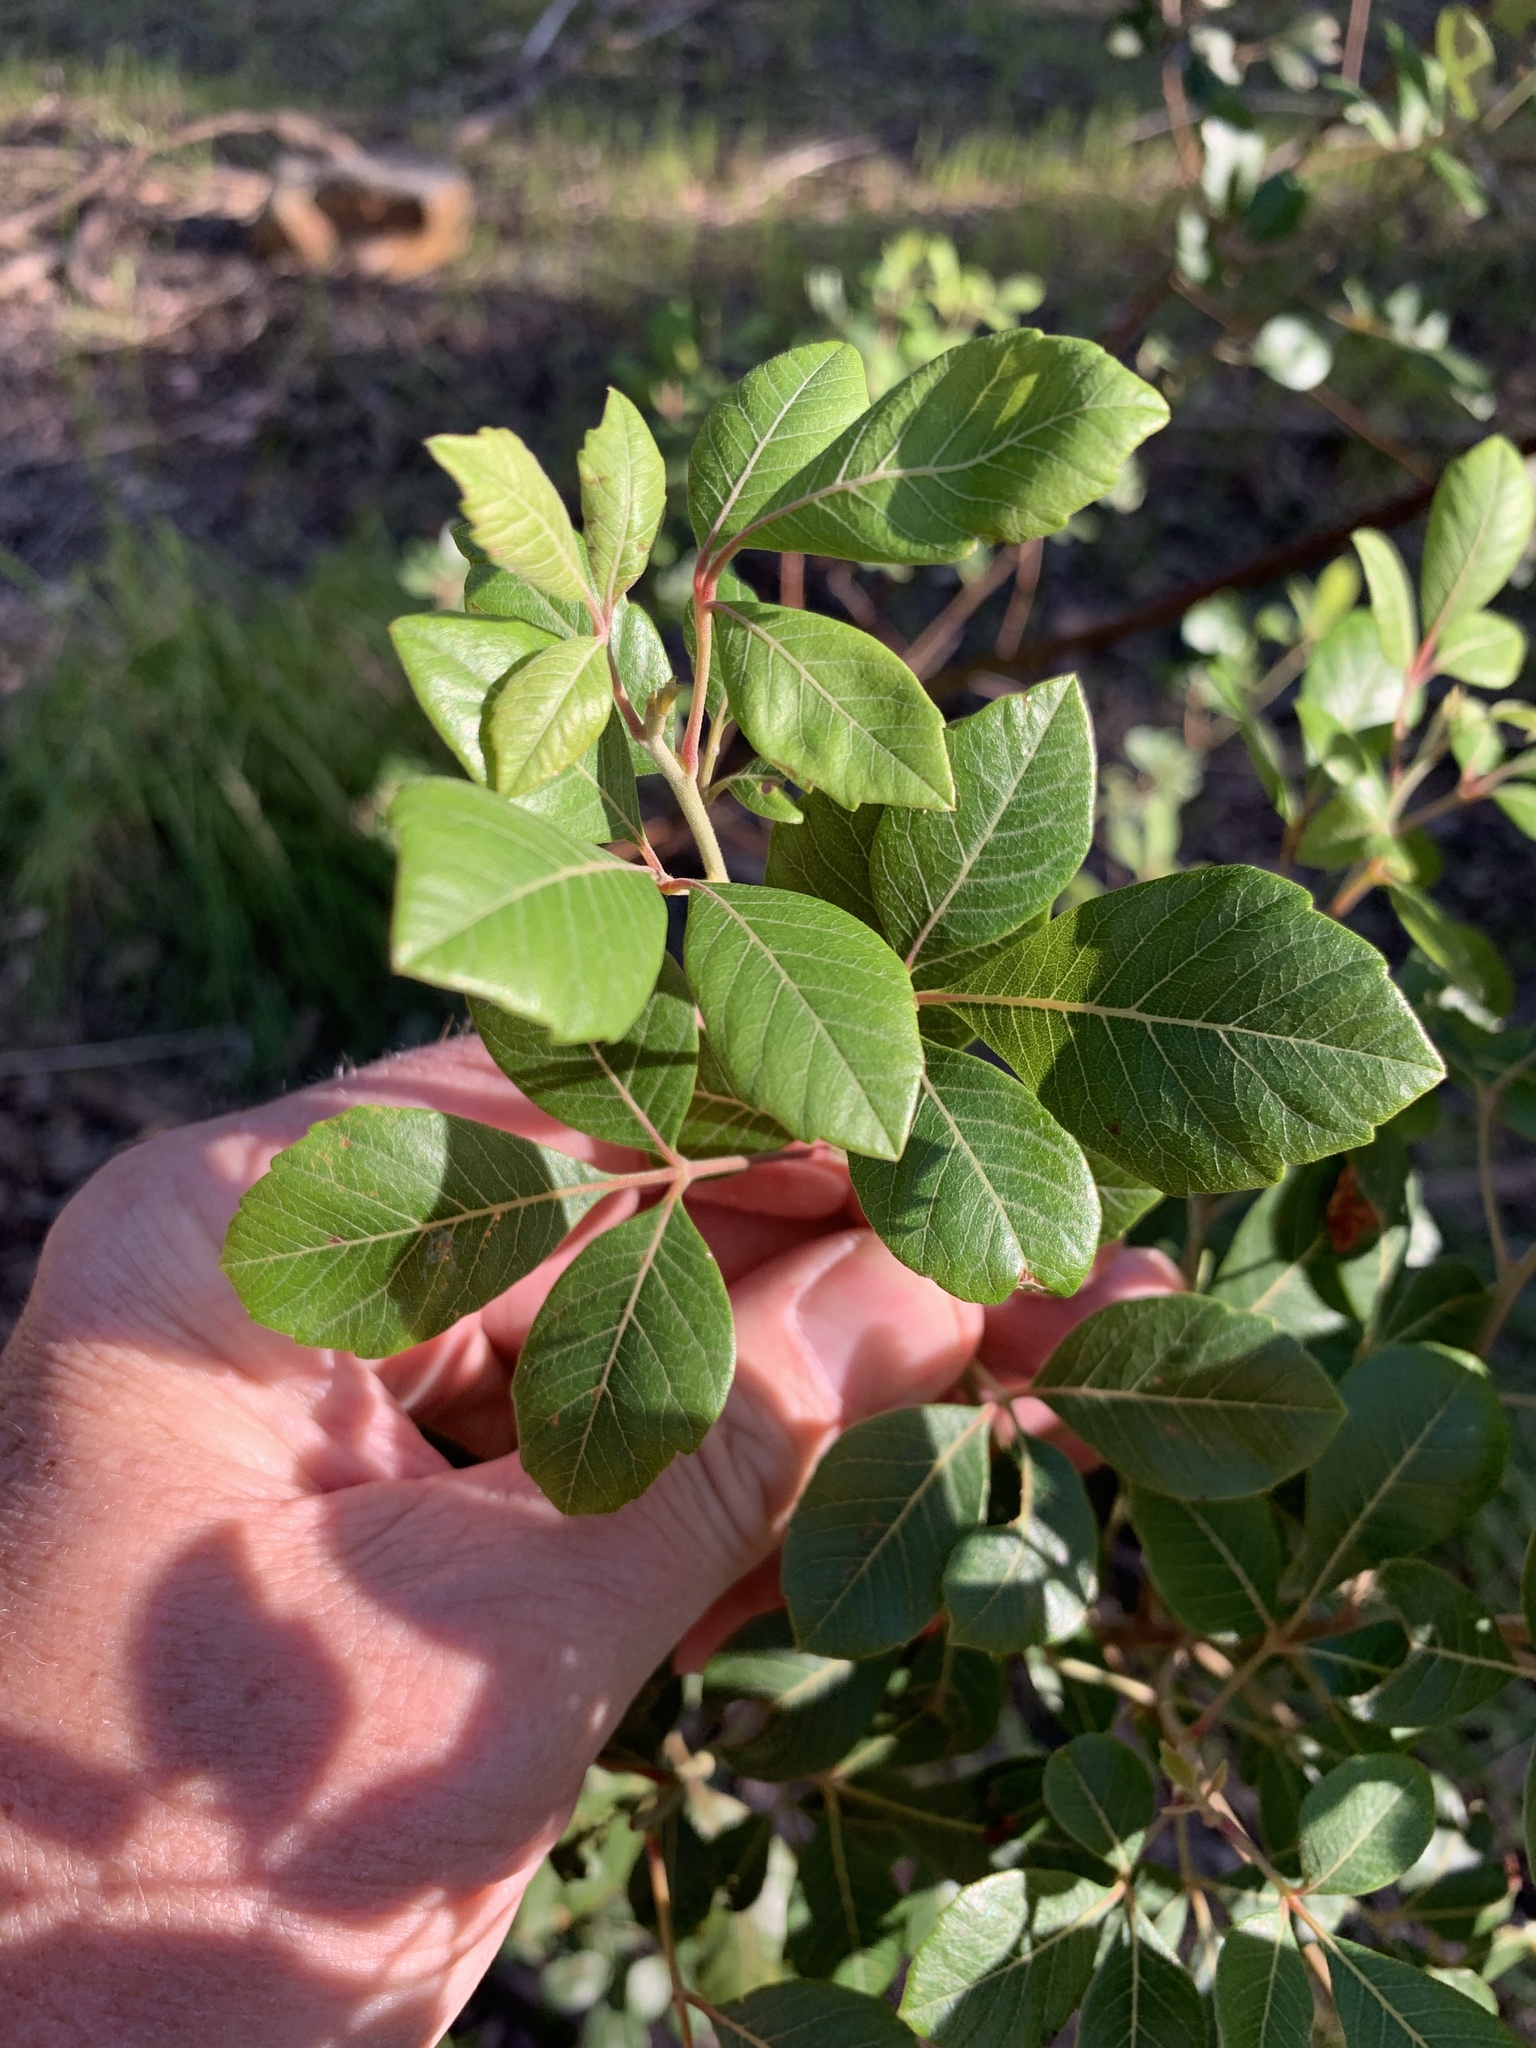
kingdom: Plantae
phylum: Tracheophyta
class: Magnoliopsida
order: Sapindales
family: Anacardiaceae
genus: Searsia
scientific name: Searsia tomentosa
